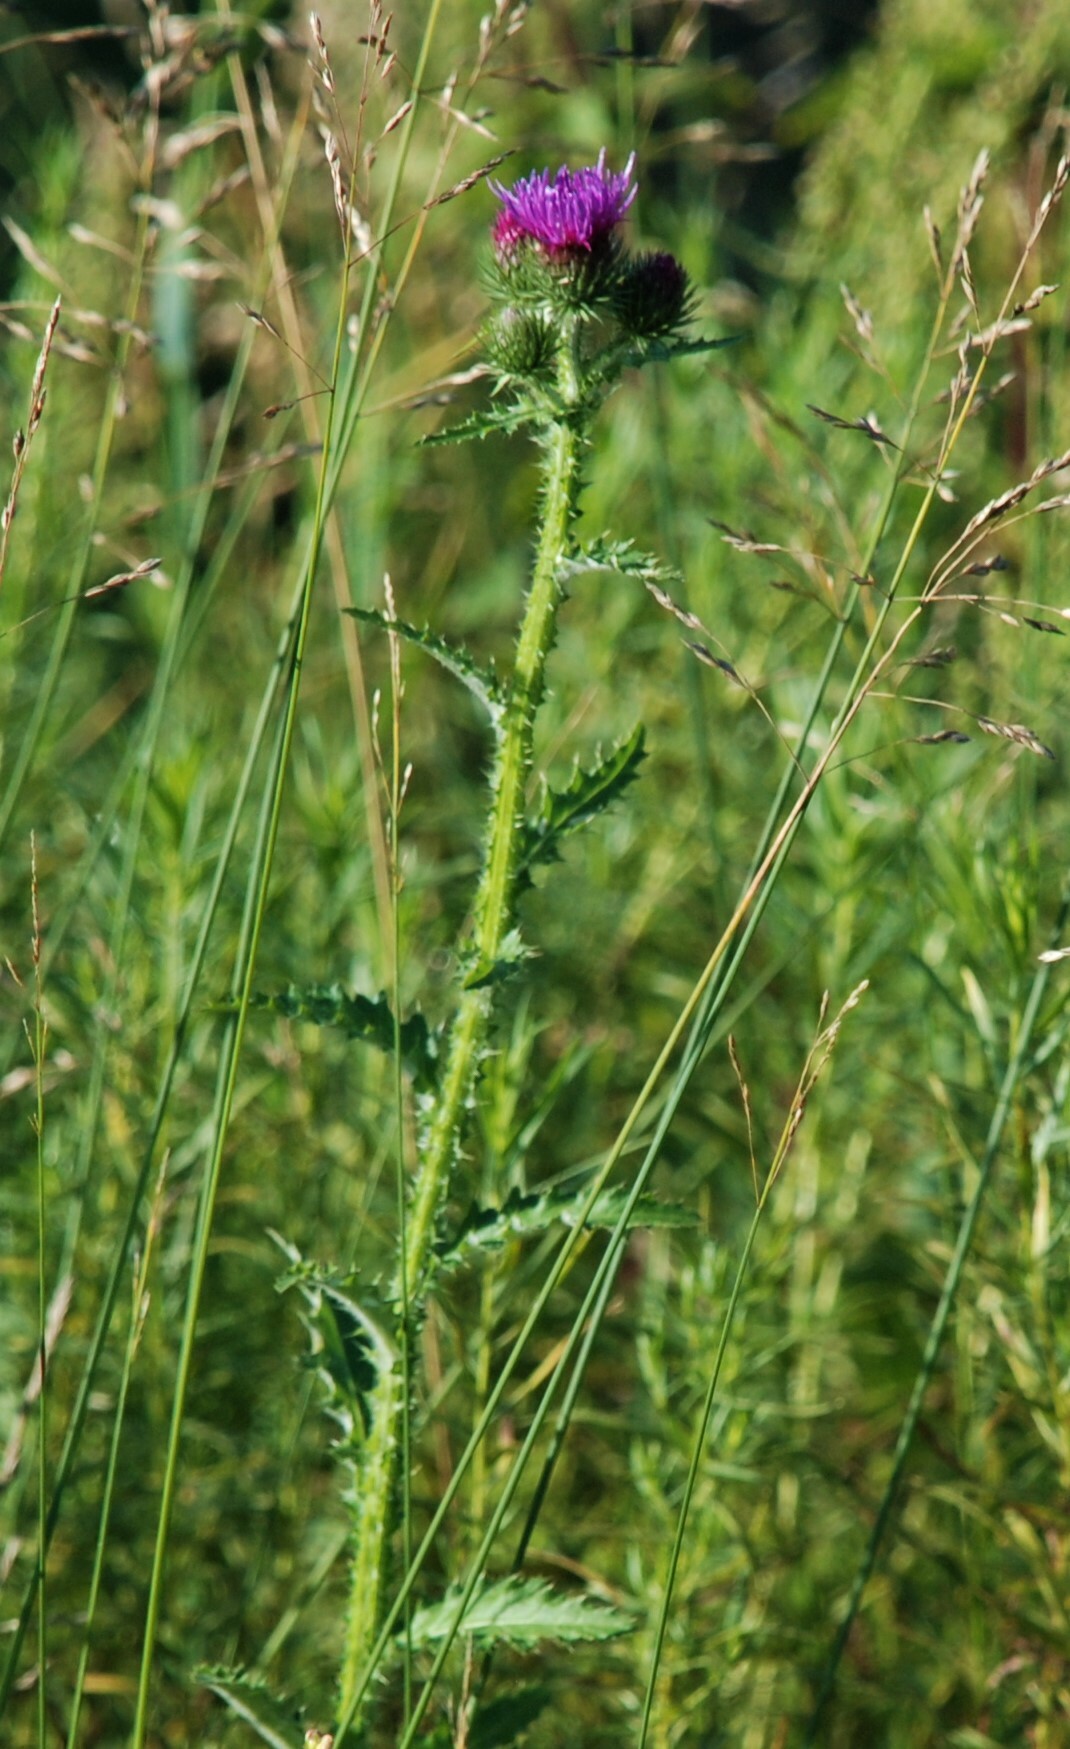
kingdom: Plantae
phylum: Tracheophyta
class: Magnoliopsida
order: Asterales
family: Asteraceae
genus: Carduus
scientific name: Carduus crispus
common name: Welted thistle
